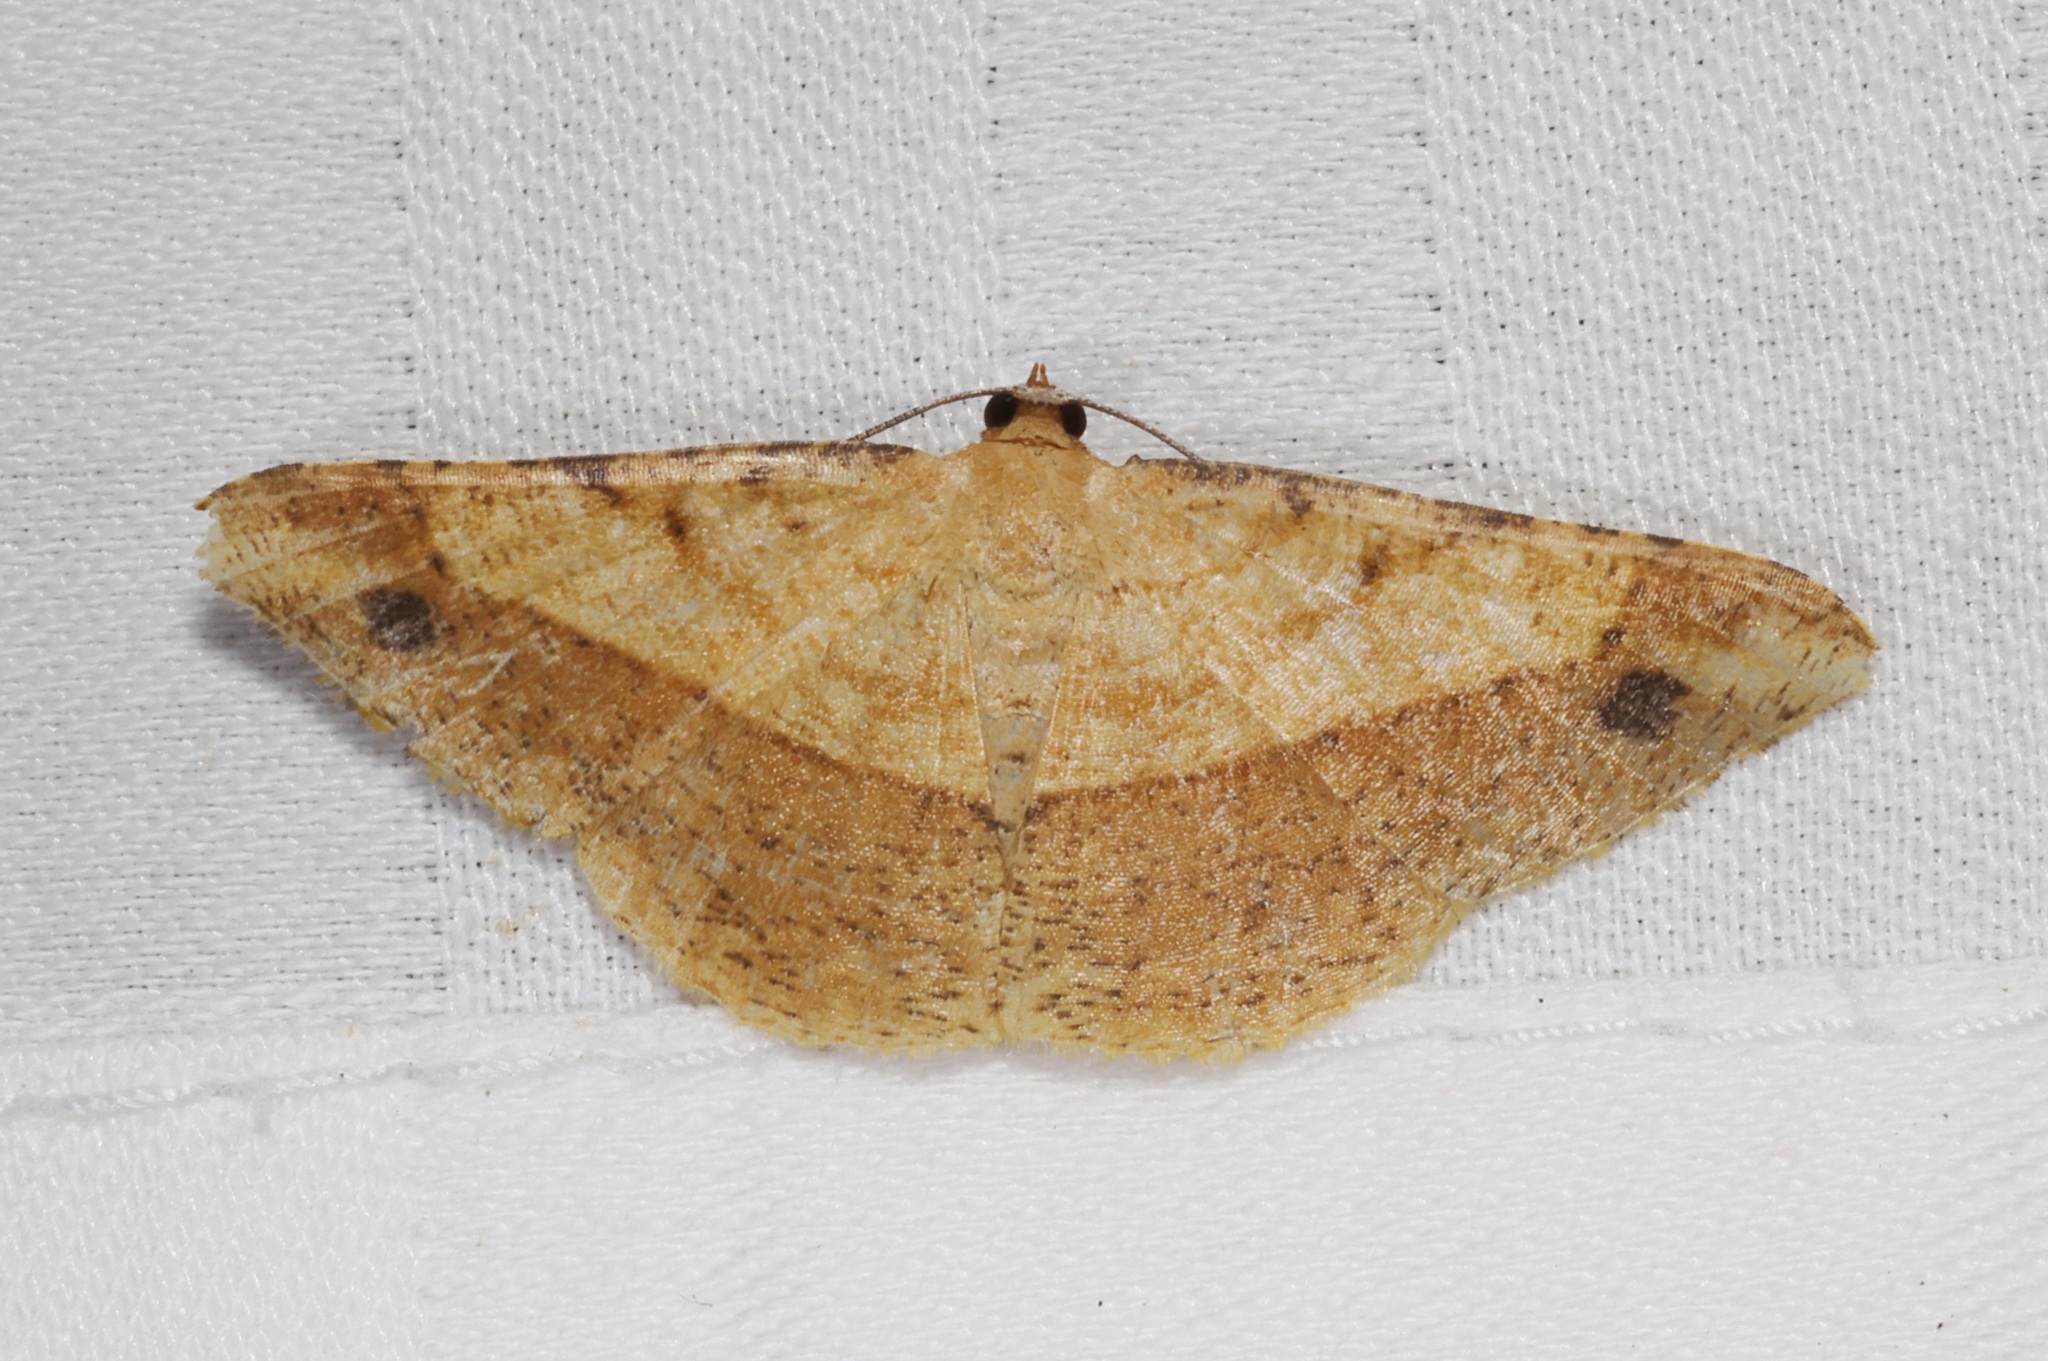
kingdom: Animalia
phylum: Arthropoda
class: Insecta
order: Lepidoptera
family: Geometridae
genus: Pseudonadagara
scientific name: Pseudonadagara semicolor
